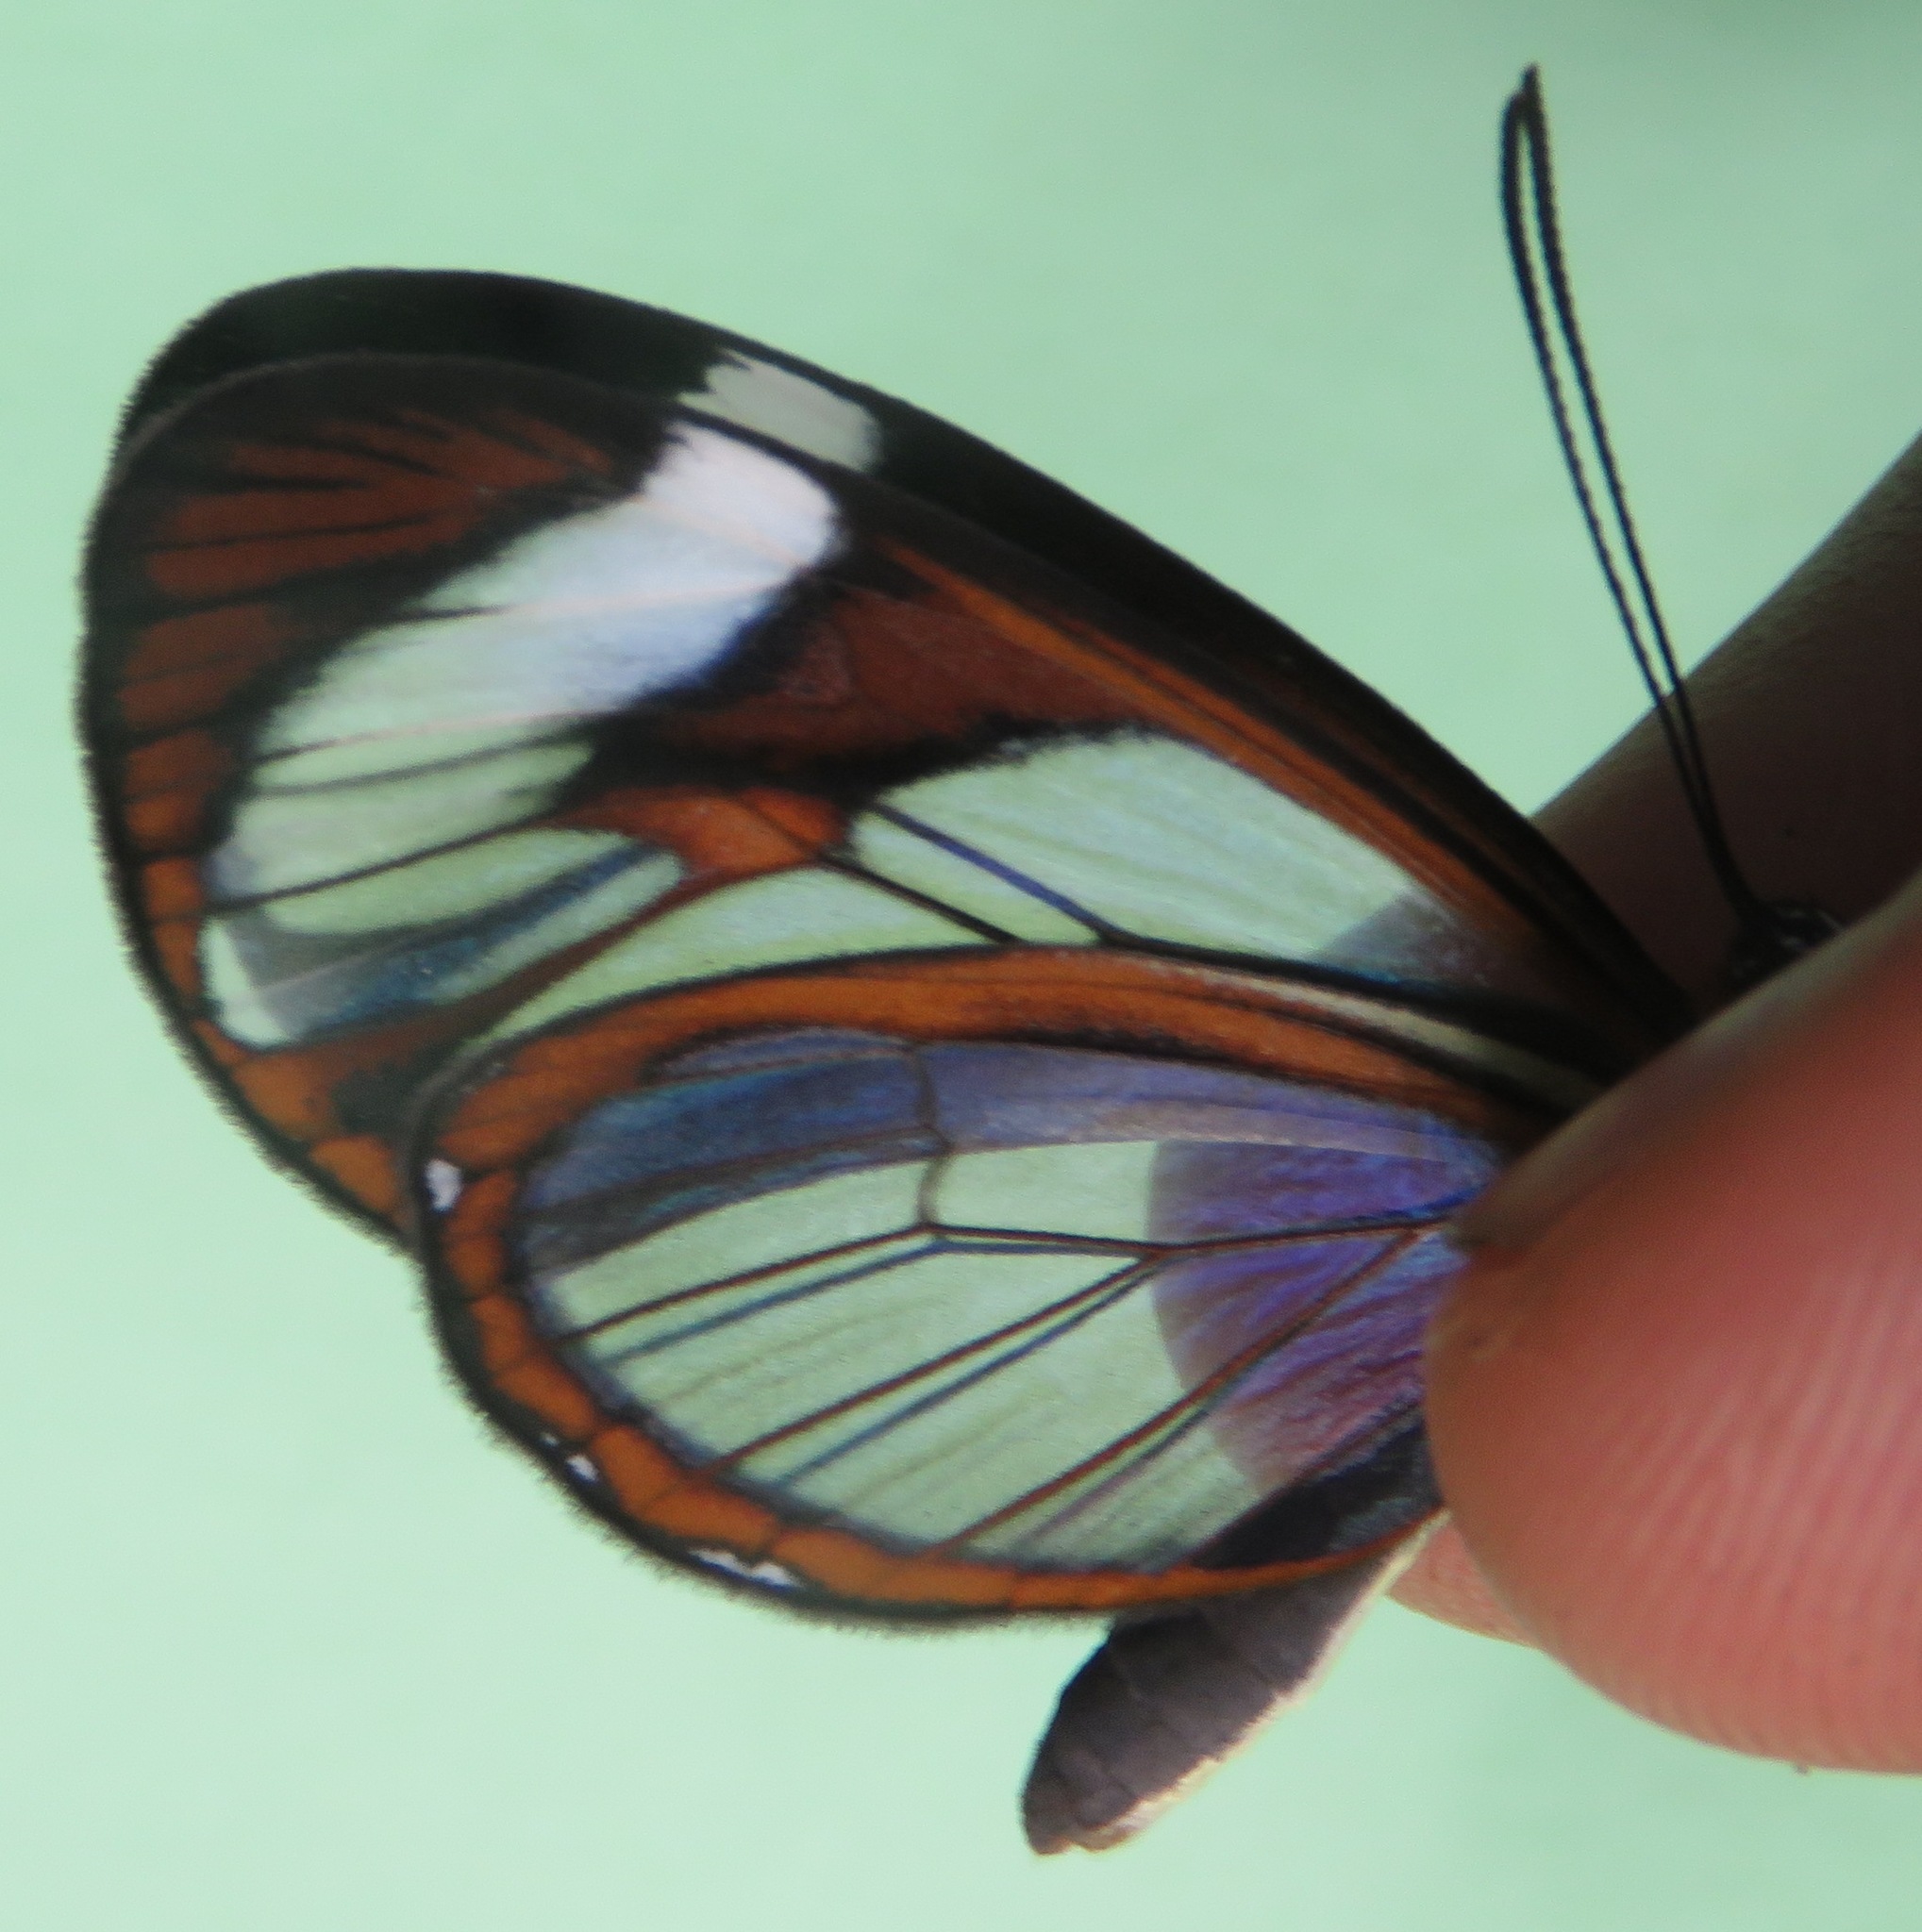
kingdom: Animalia
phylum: Arthropoda
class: Insecta
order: Lepidoptera
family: Nymphalidae
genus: Ithomia
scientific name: Ithomia patilla
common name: Patilla clearwing
